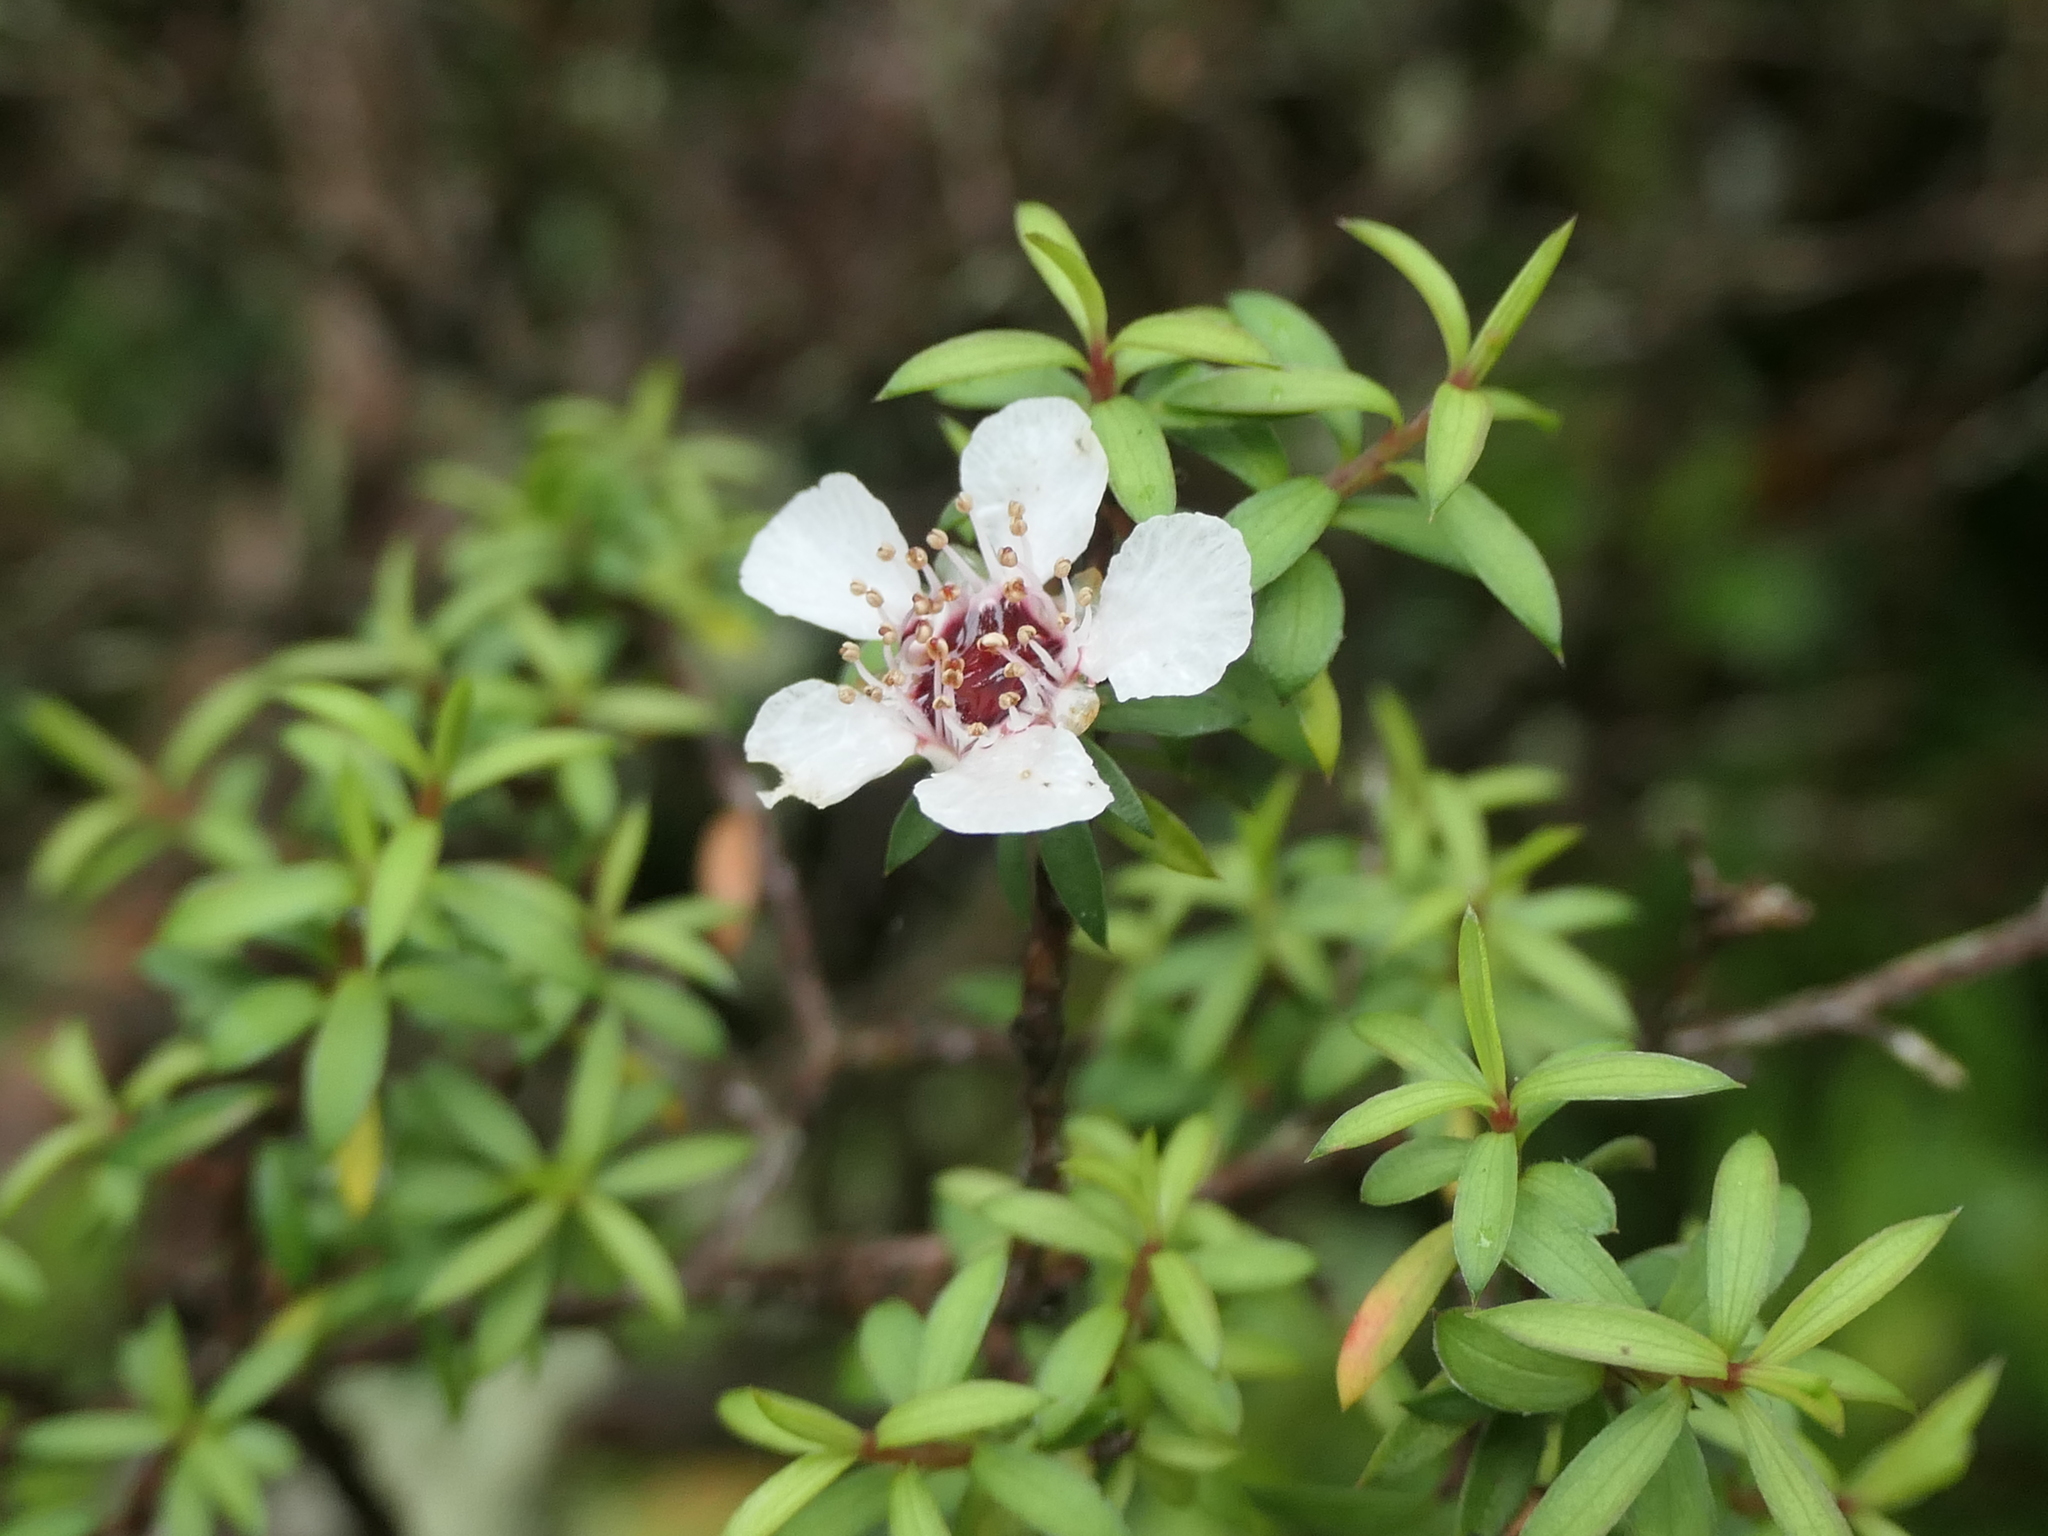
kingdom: Plantae
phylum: Tracheophyta
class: Magnoliopsida
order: Myrtales
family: Myrtaceae
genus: Leptospermum
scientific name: Leptospermum scoparium
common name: Broom tea-tree
